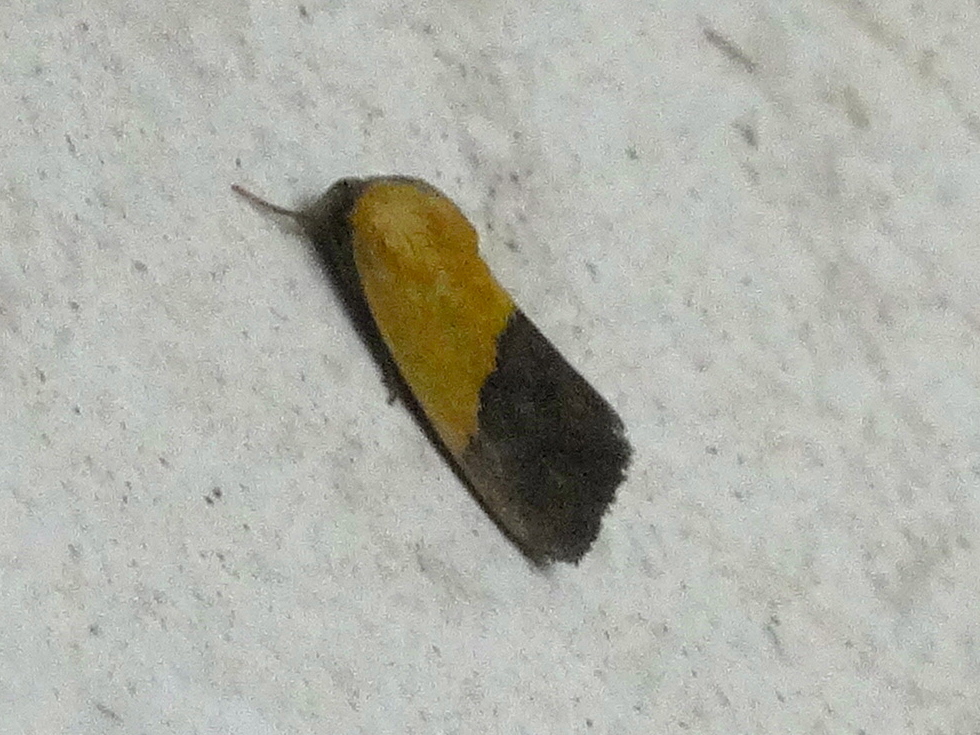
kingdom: Animalia
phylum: Arthropoda
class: Insecta
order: Lepidoptera
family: Noctuidae
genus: Acontia
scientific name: Acontia semiflava
